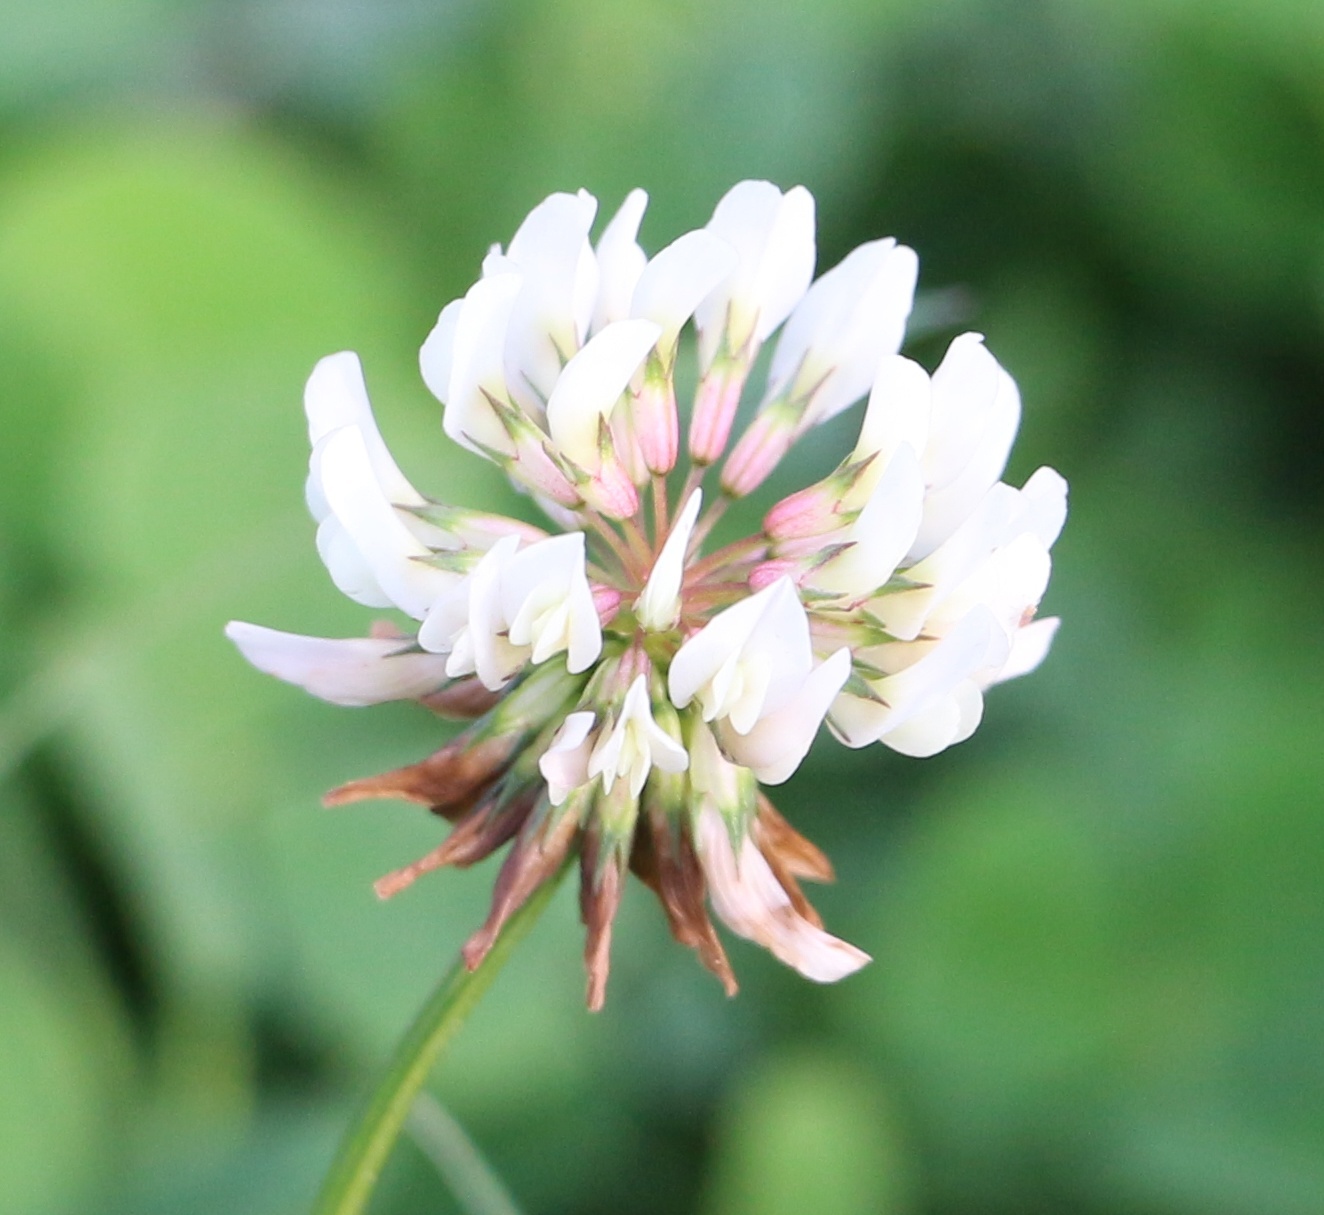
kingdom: Plantae
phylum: Tracheophyta
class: Magnoliopsida
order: Fabales
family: Fabaceae
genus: Trifolium
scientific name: Trifolium repens
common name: White clover
